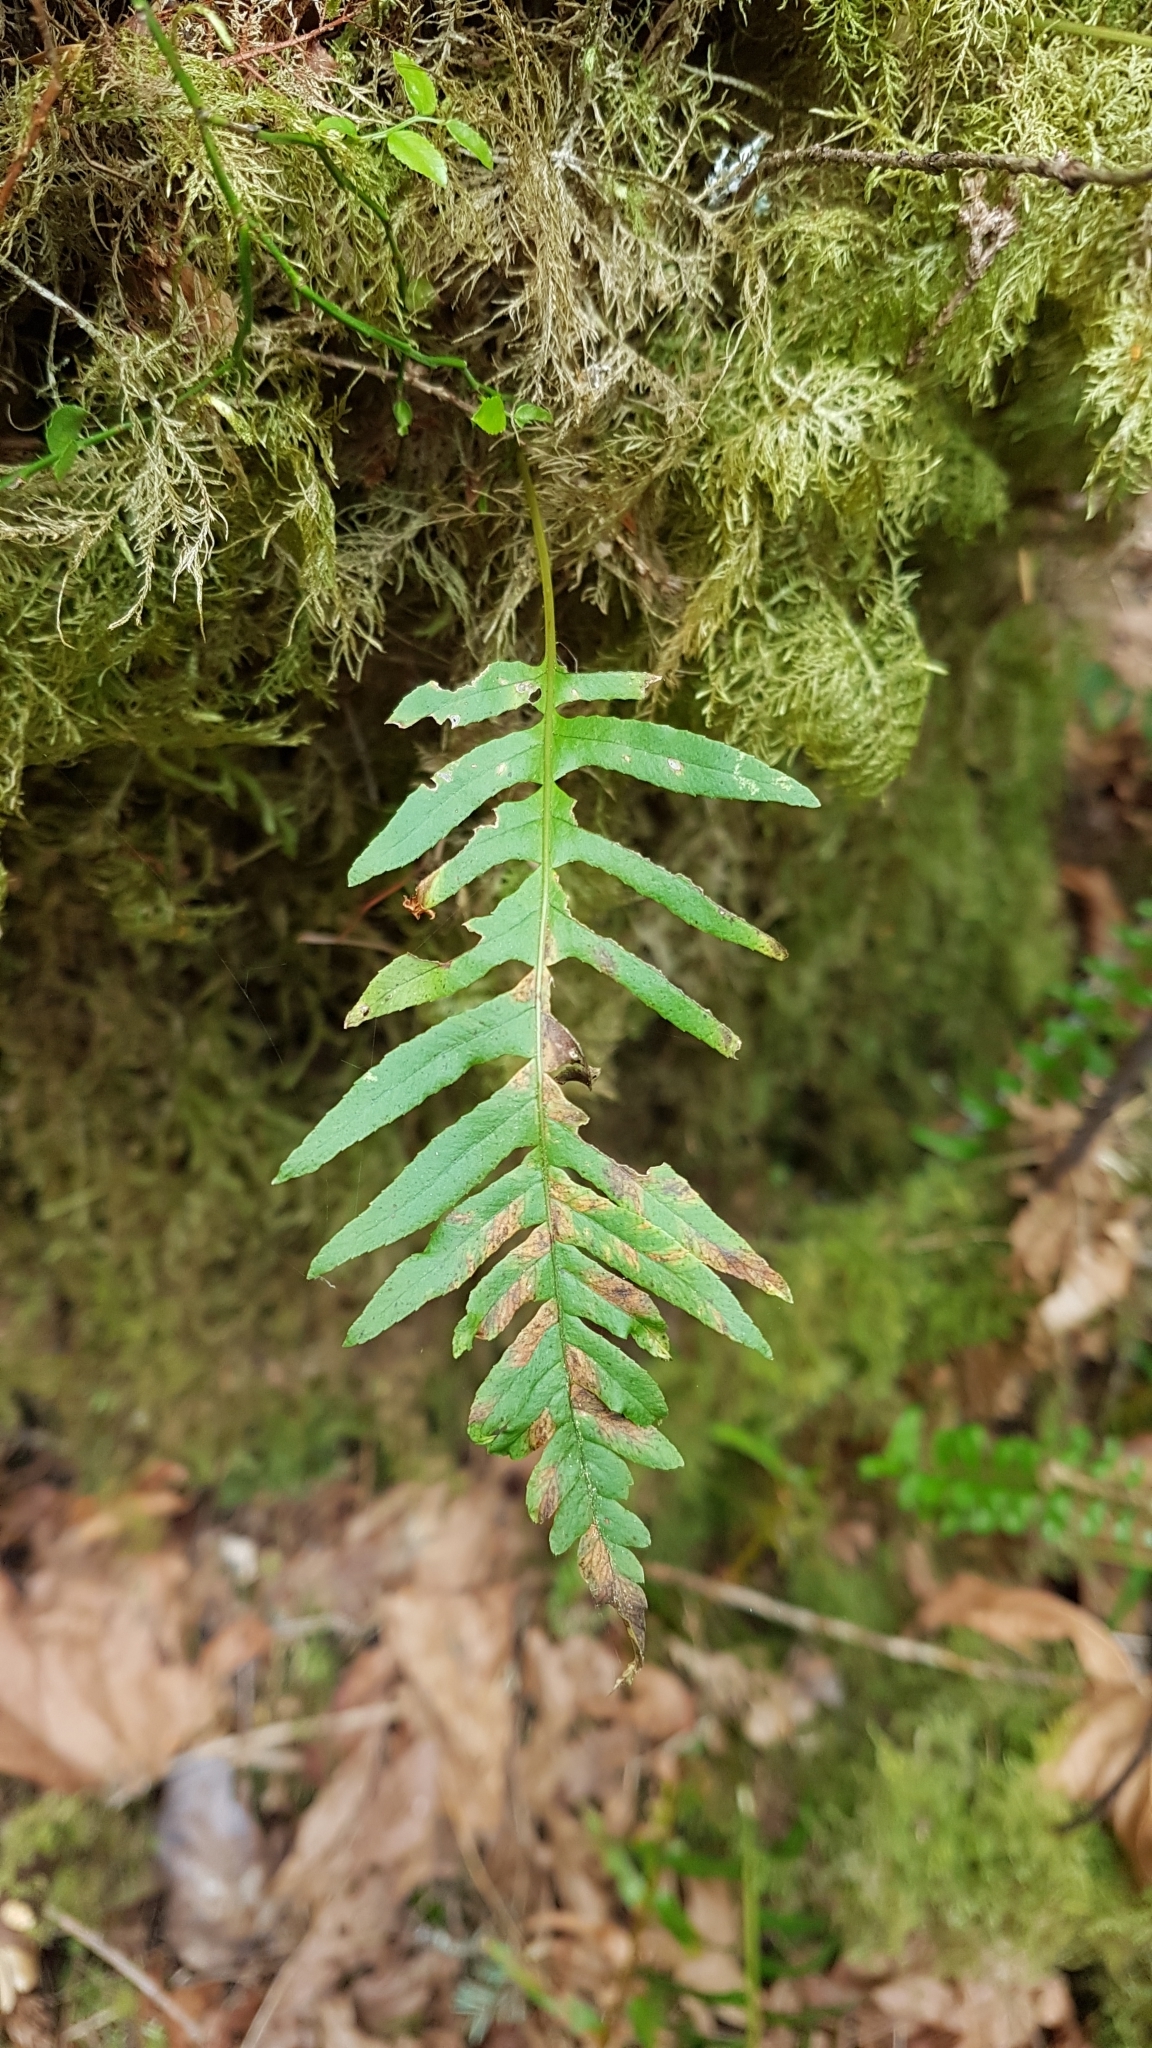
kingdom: Plantae
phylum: Tracheophyta
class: Polypodiopsida
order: Polypodiales
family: Polypodiaceae
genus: Polypodium
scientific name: Polypodium glycyrrhiza
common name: Licorice fern
